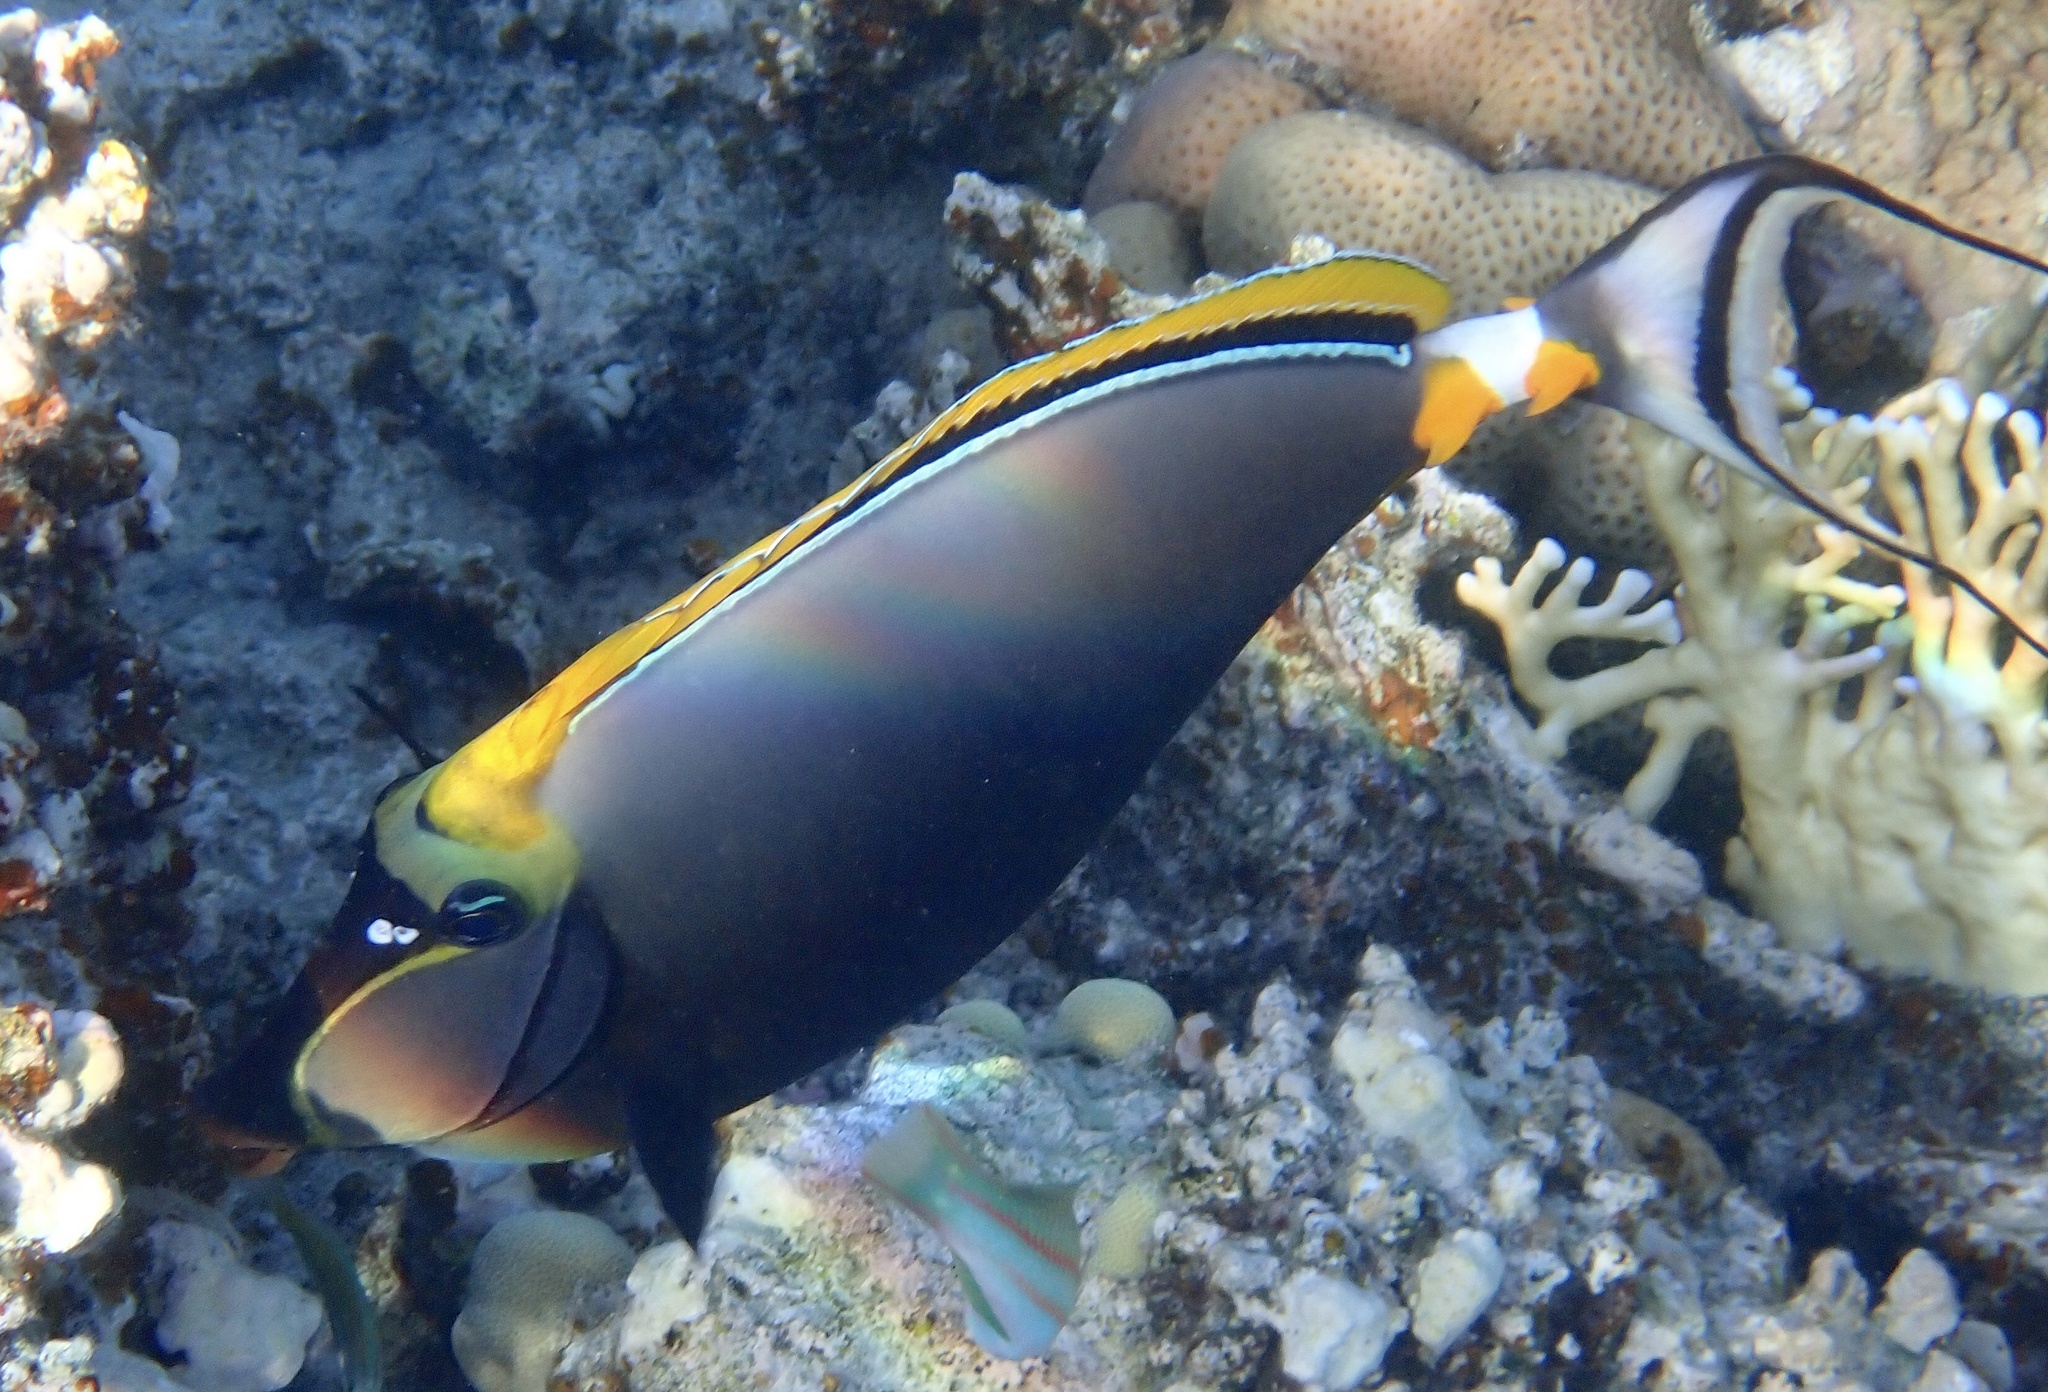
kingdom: Animalia
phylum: Chordata
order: Perciformes
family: Acanthuridae
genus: Naso
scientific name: Naso elegans
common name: Orangespine unicornfish
